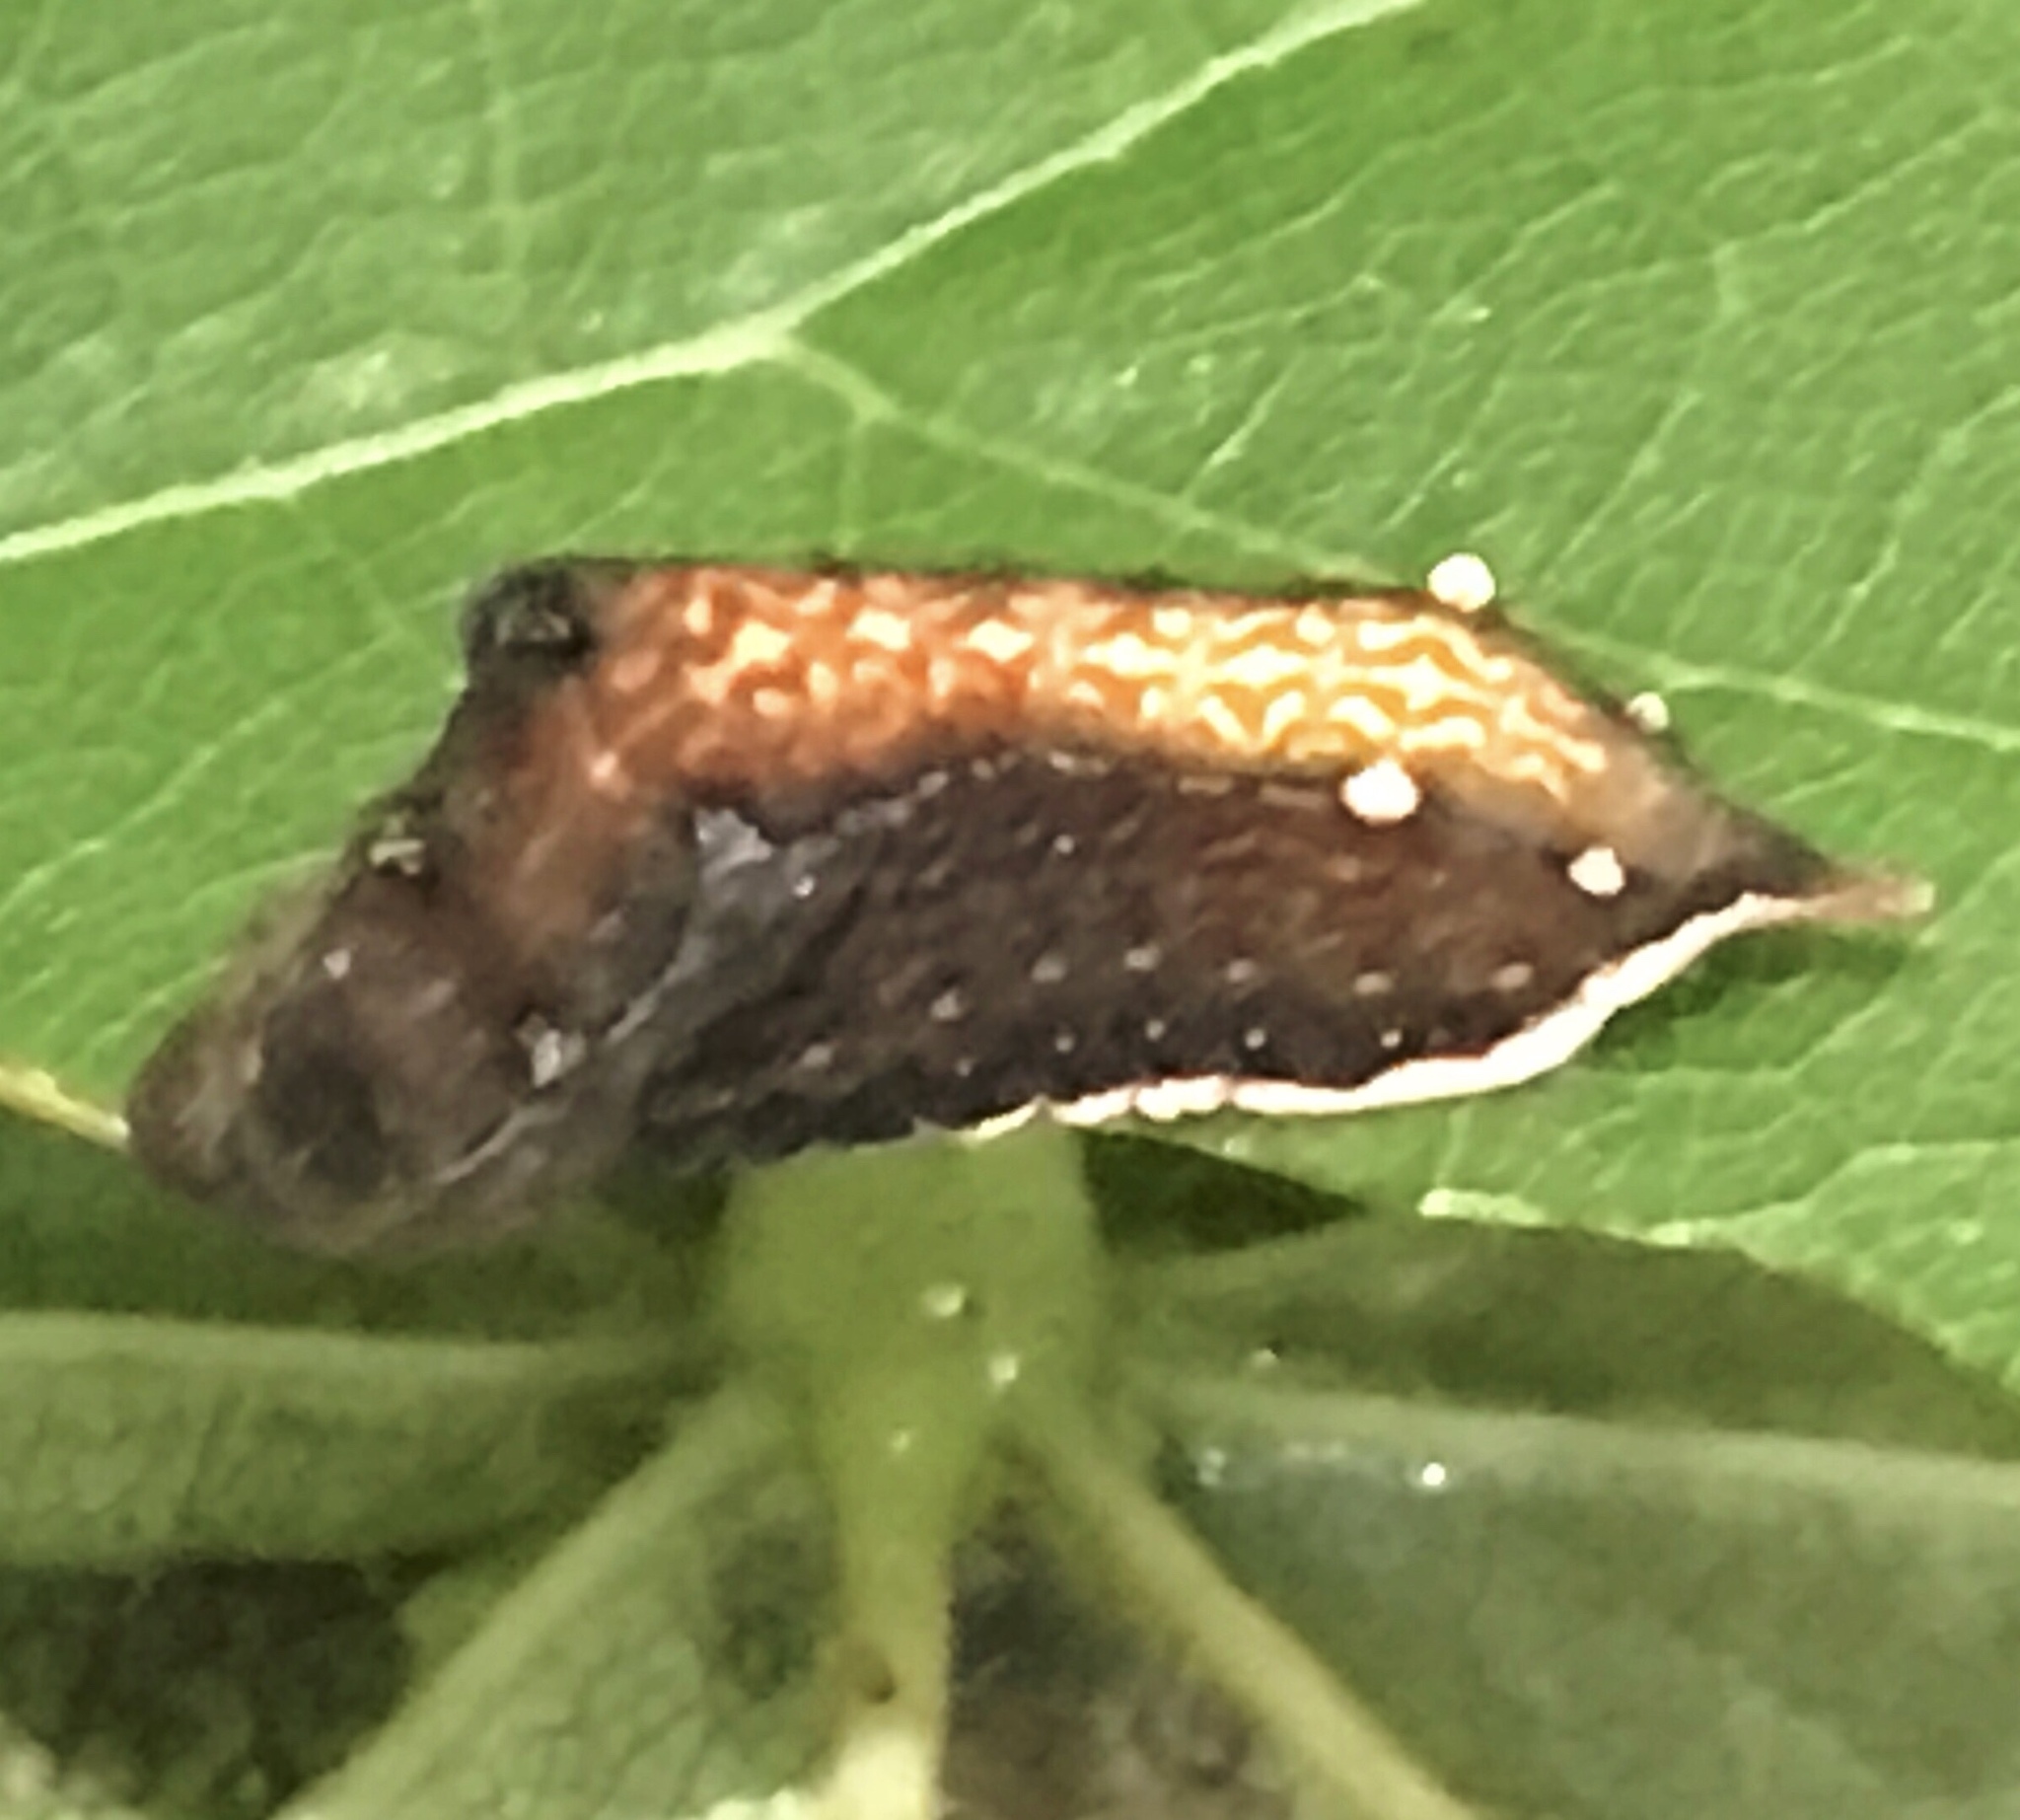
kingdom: Animalia
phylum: Arthropoda
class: Insecta
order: Lepidoptera
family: Limacodidae
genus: Parasa
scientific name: Parasa chloris
